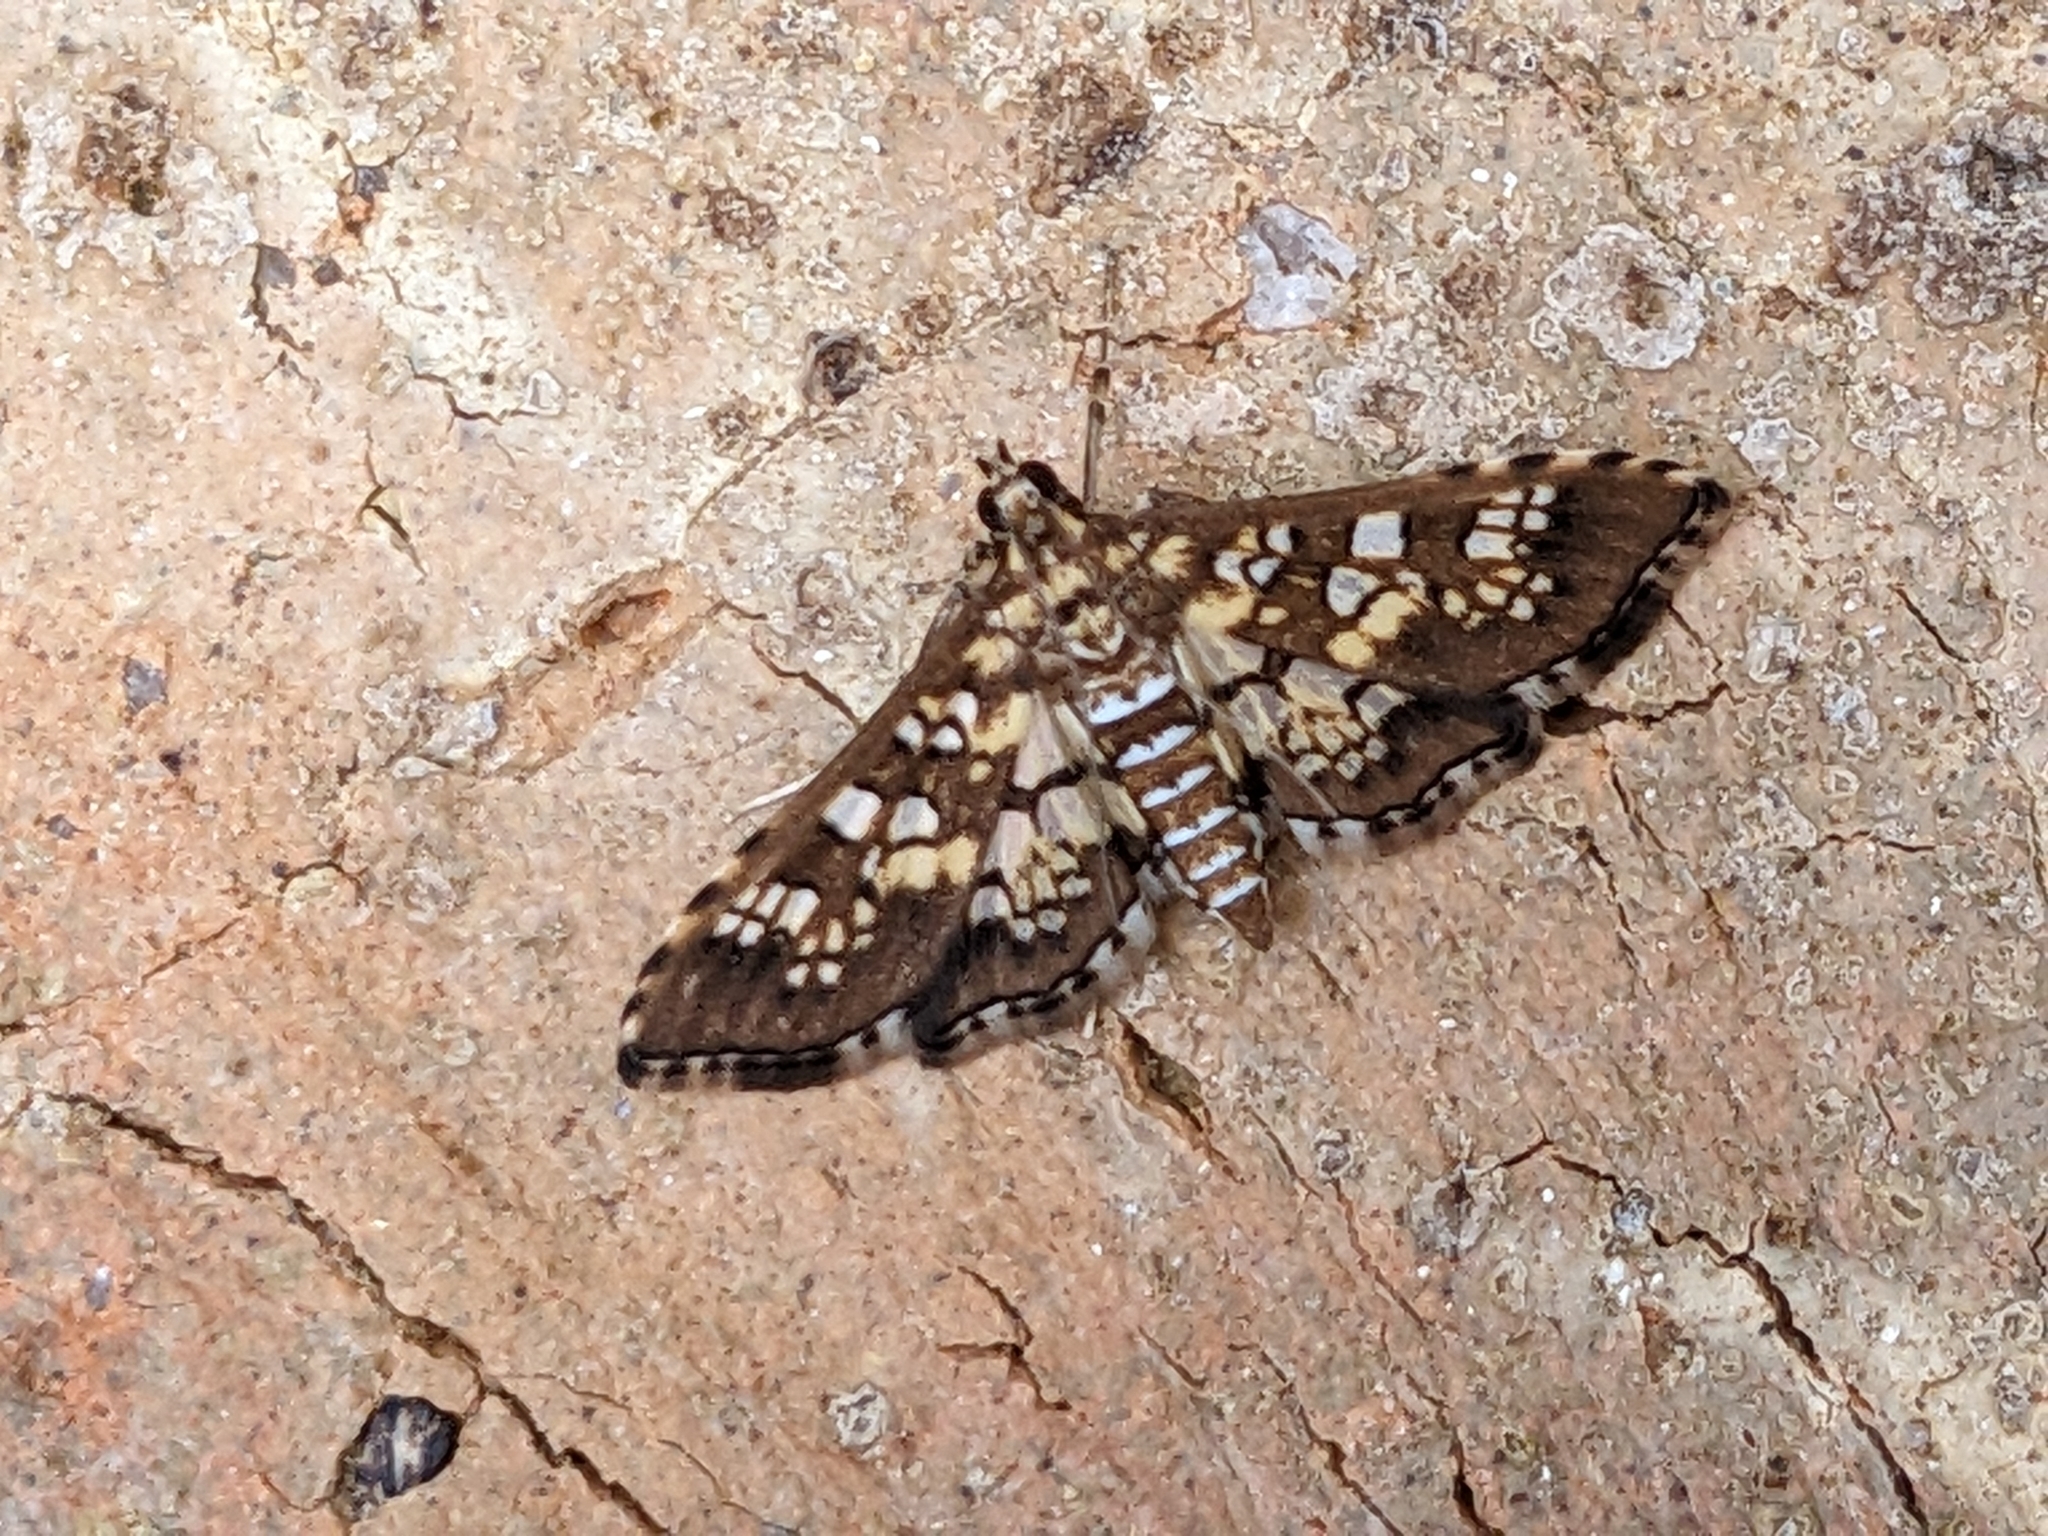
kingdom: Animalia
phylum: Arthropoda
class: Insecta
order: Lepidoptera
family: Crambidae
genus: Samea
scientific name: Samea ecclesialis
